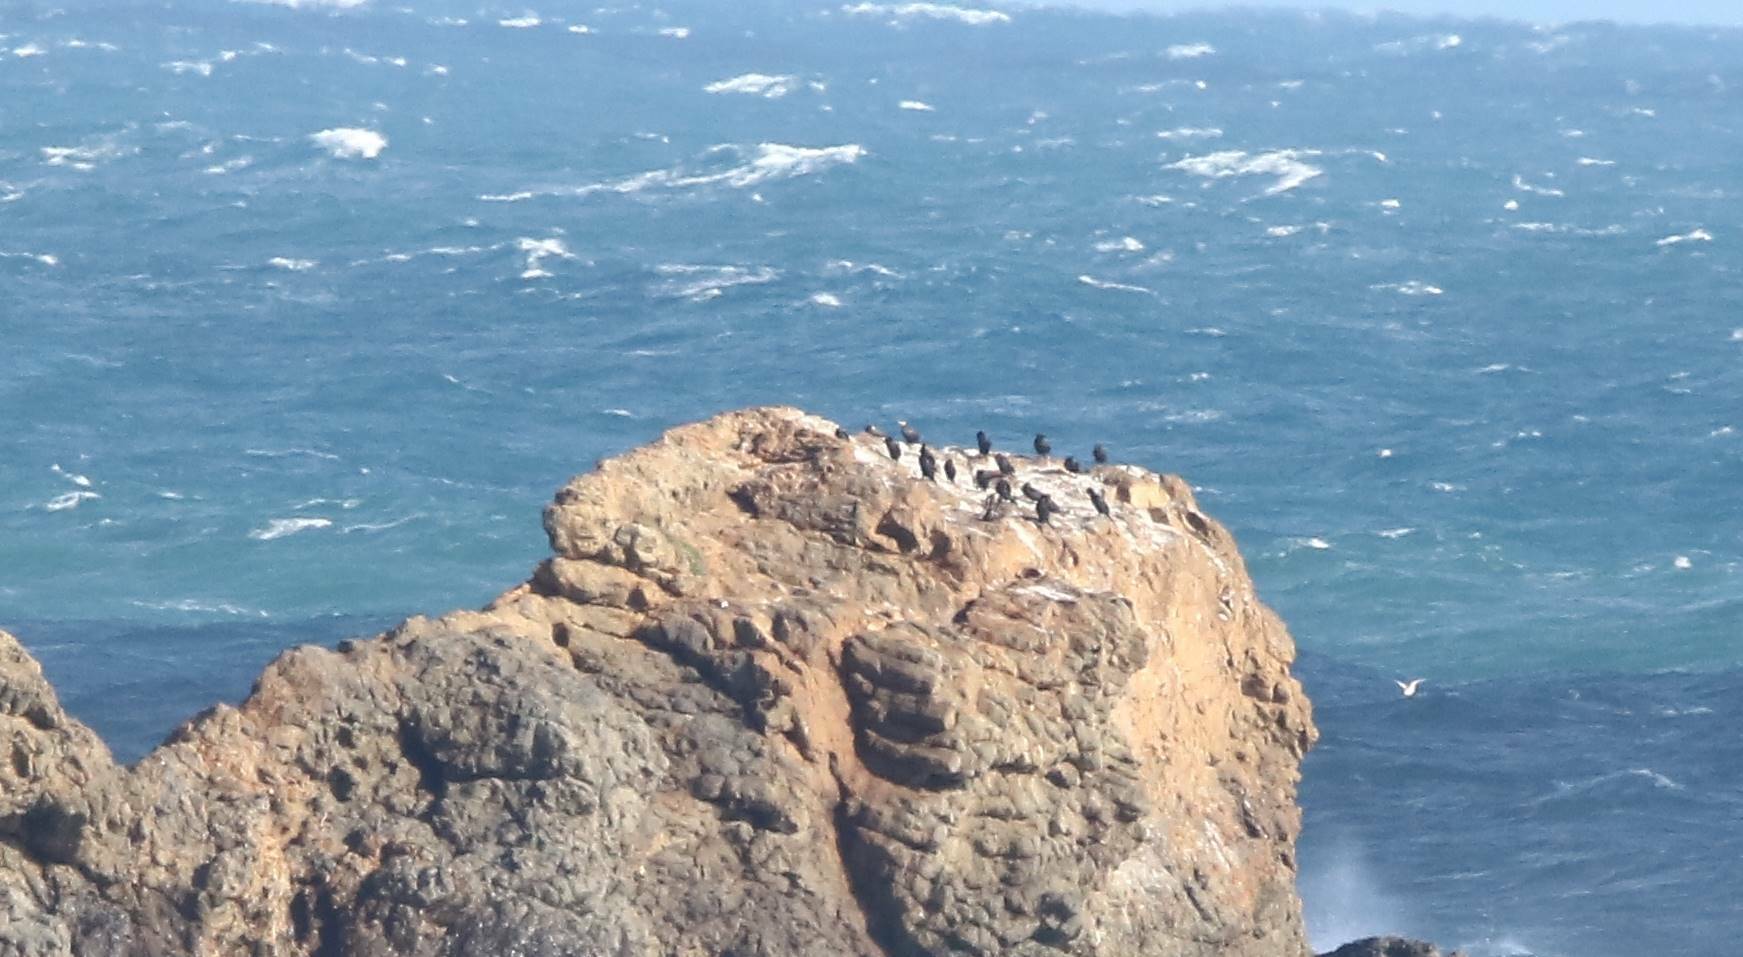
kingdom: Animalia
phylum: Chordata
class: Aves
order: Suliformes
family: Phalacrocoracidae
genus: Phalacrocorax
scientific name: Phalacrocorax aristotelis
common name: European shag
